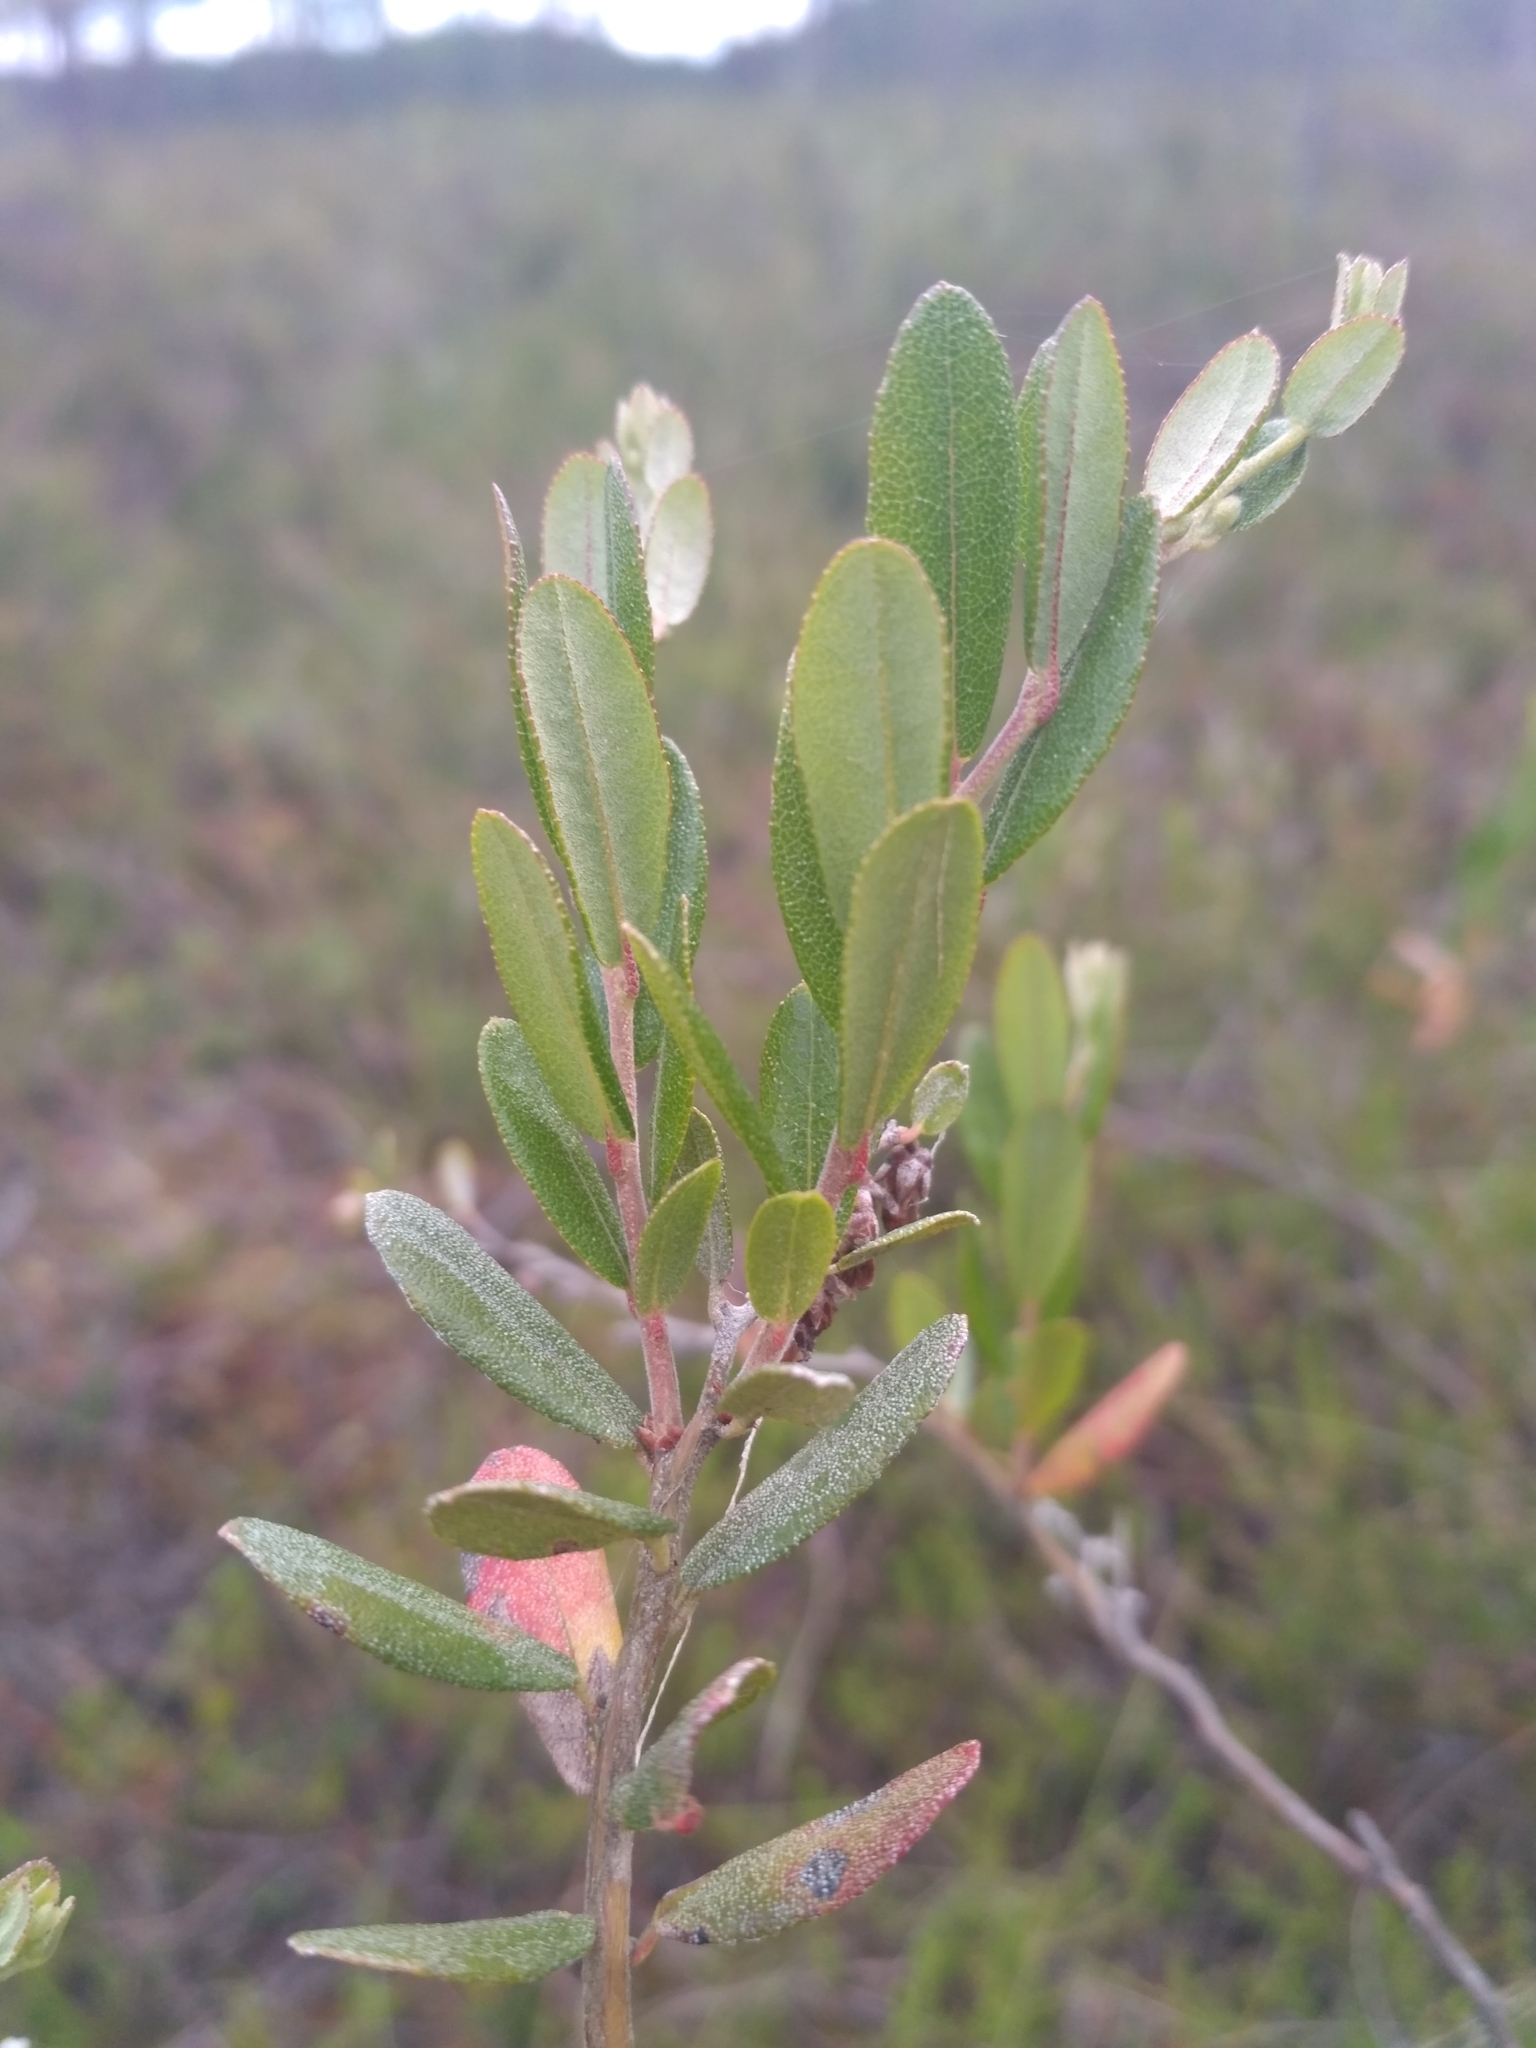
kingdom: Plantae
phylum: Tracheophyta
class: Magnoliopsida
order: Ericales
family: Ericaceae
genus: Chamaedaphne
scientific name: Chamaedaphne calyculata
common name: Leatherleaf
